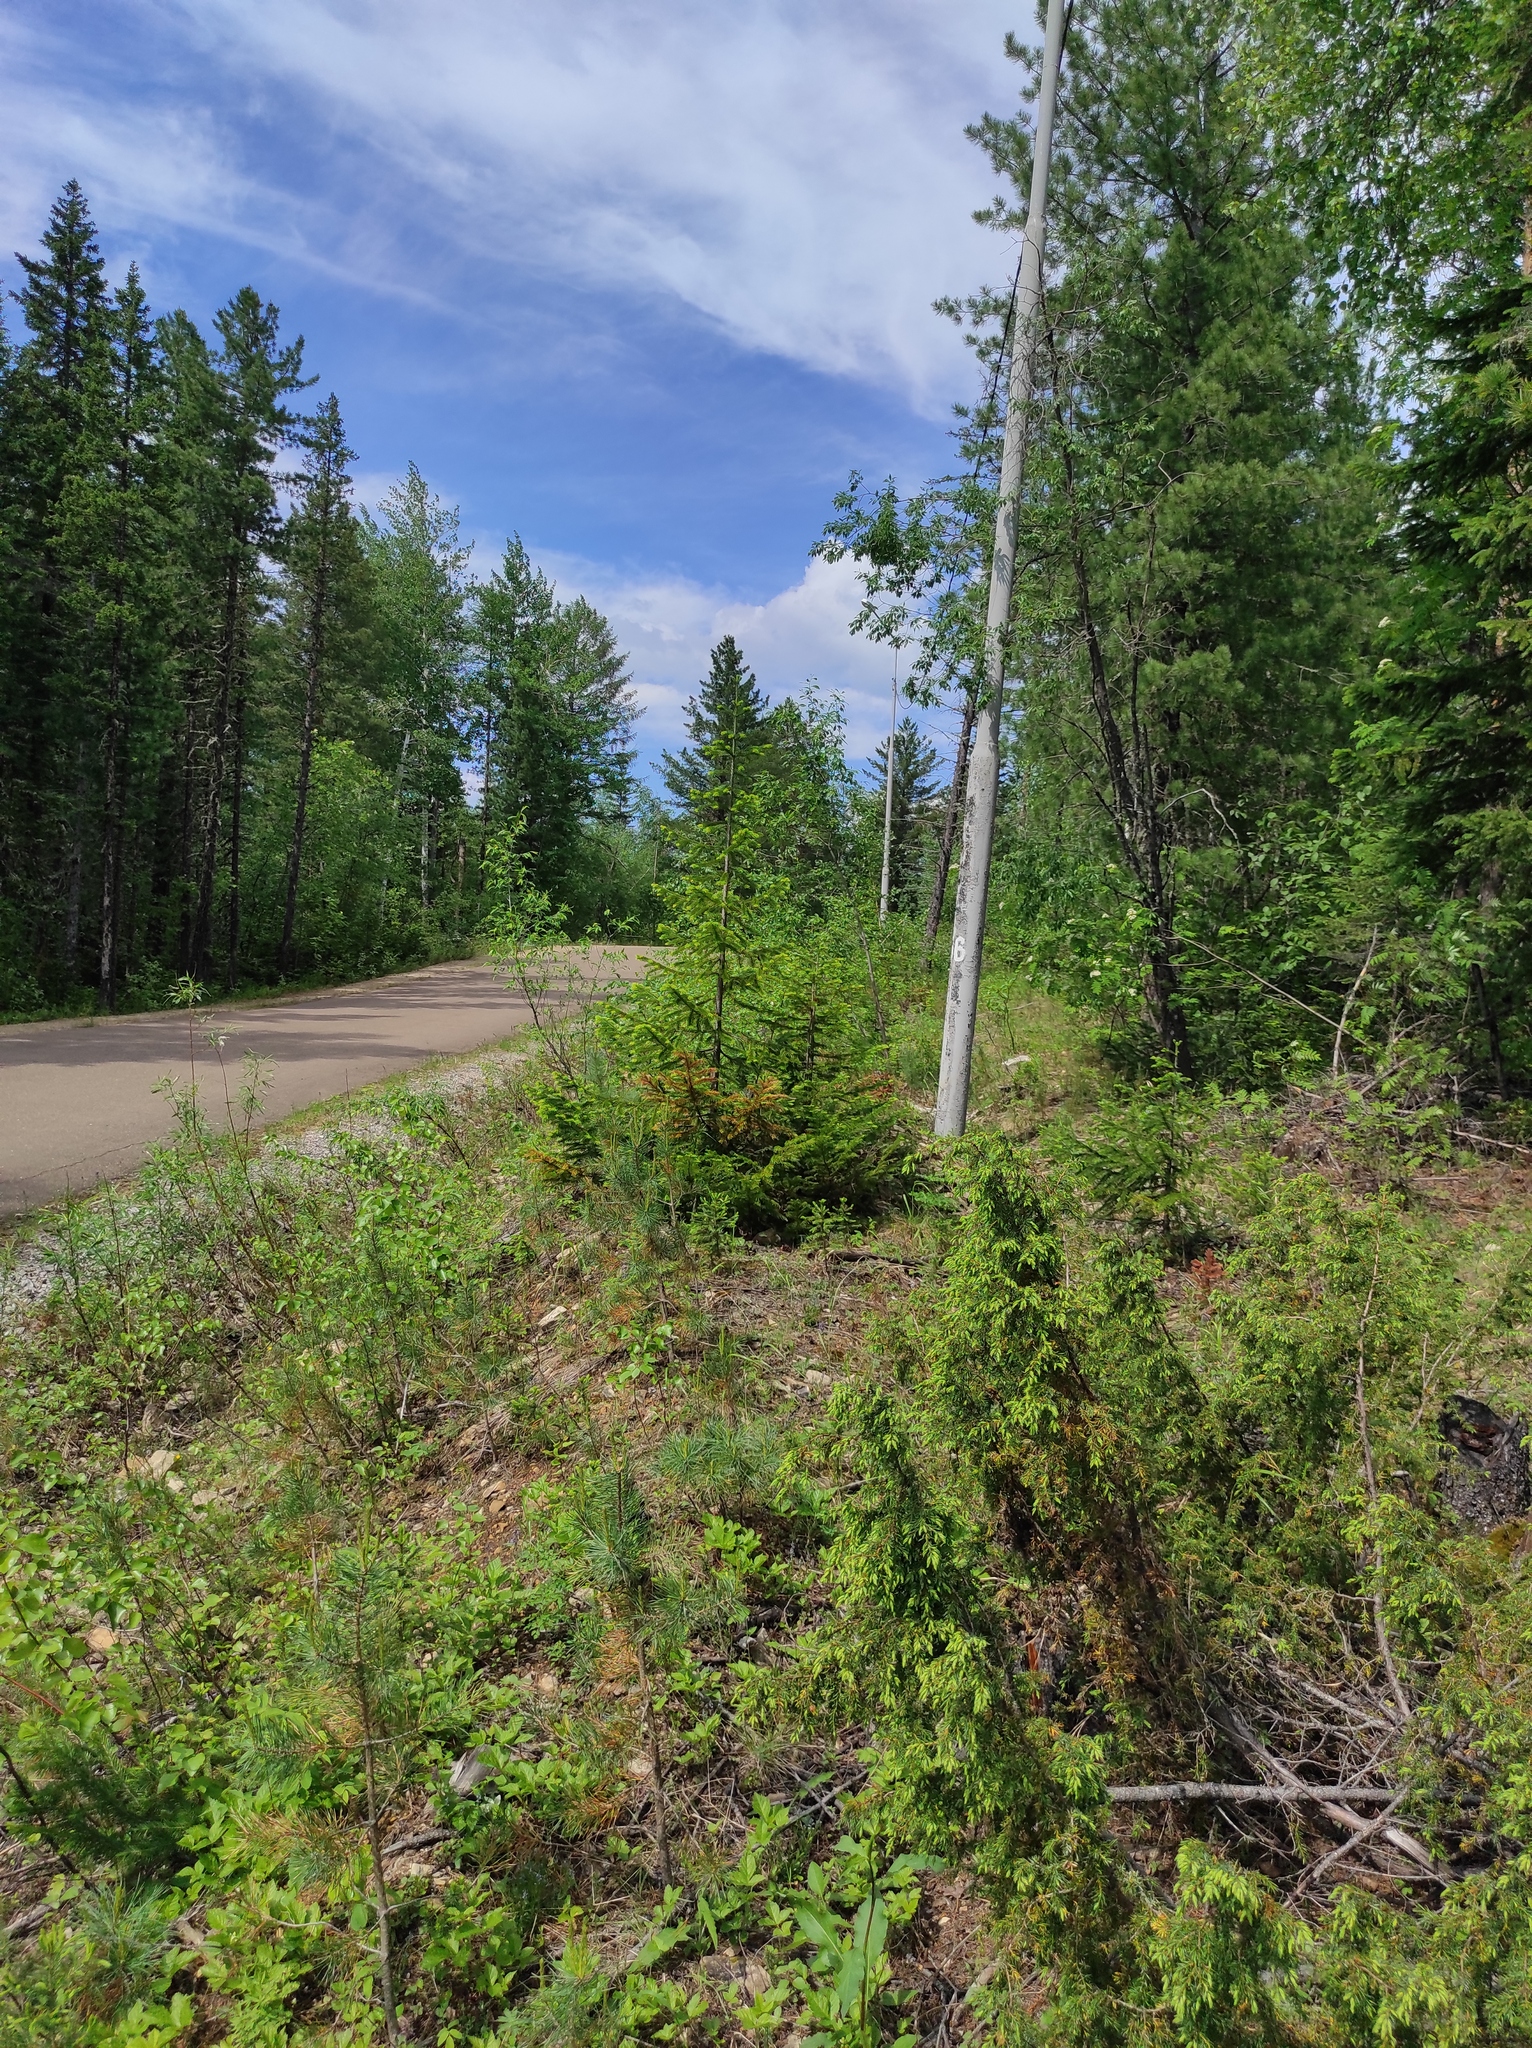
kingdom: Plantae
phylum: Tracheophyta
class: Pinopsida
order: Pinales
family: Pinaceae
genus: Picea
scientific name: Picea obovata
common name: Siberian spruce
